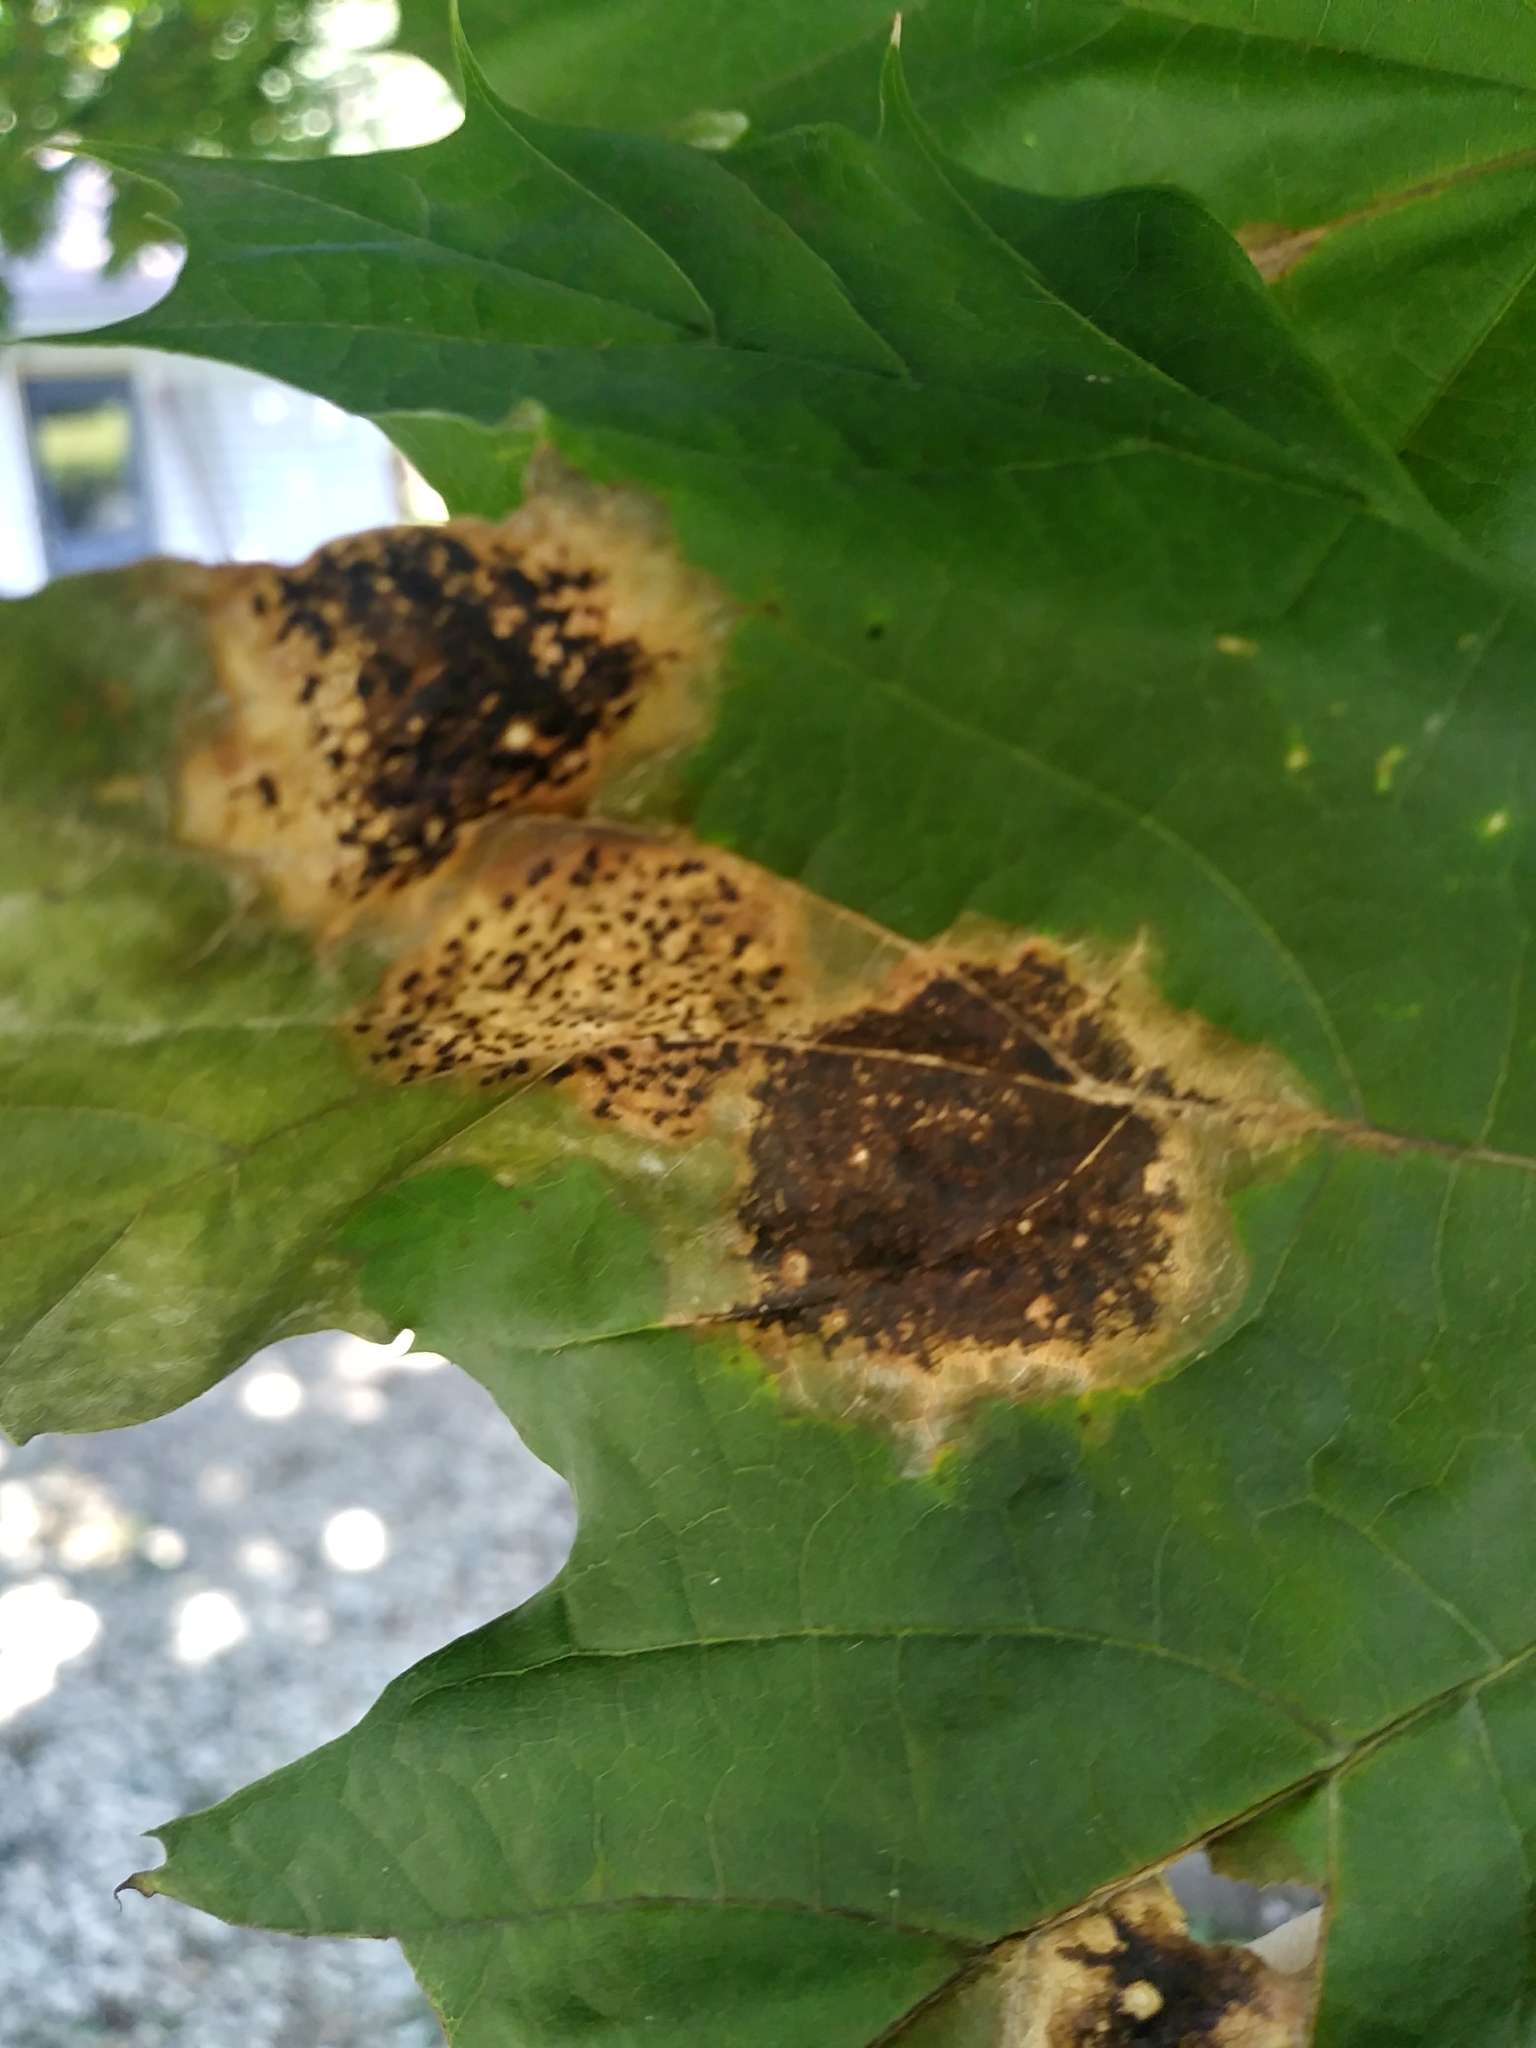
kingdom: Fungi
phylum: Ascomycota
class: Leotiomycetes
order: Rhytismatales
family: Rhytismataceae
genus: Rhytisma
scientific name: Rhytisma acerinum
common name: European tar spot
